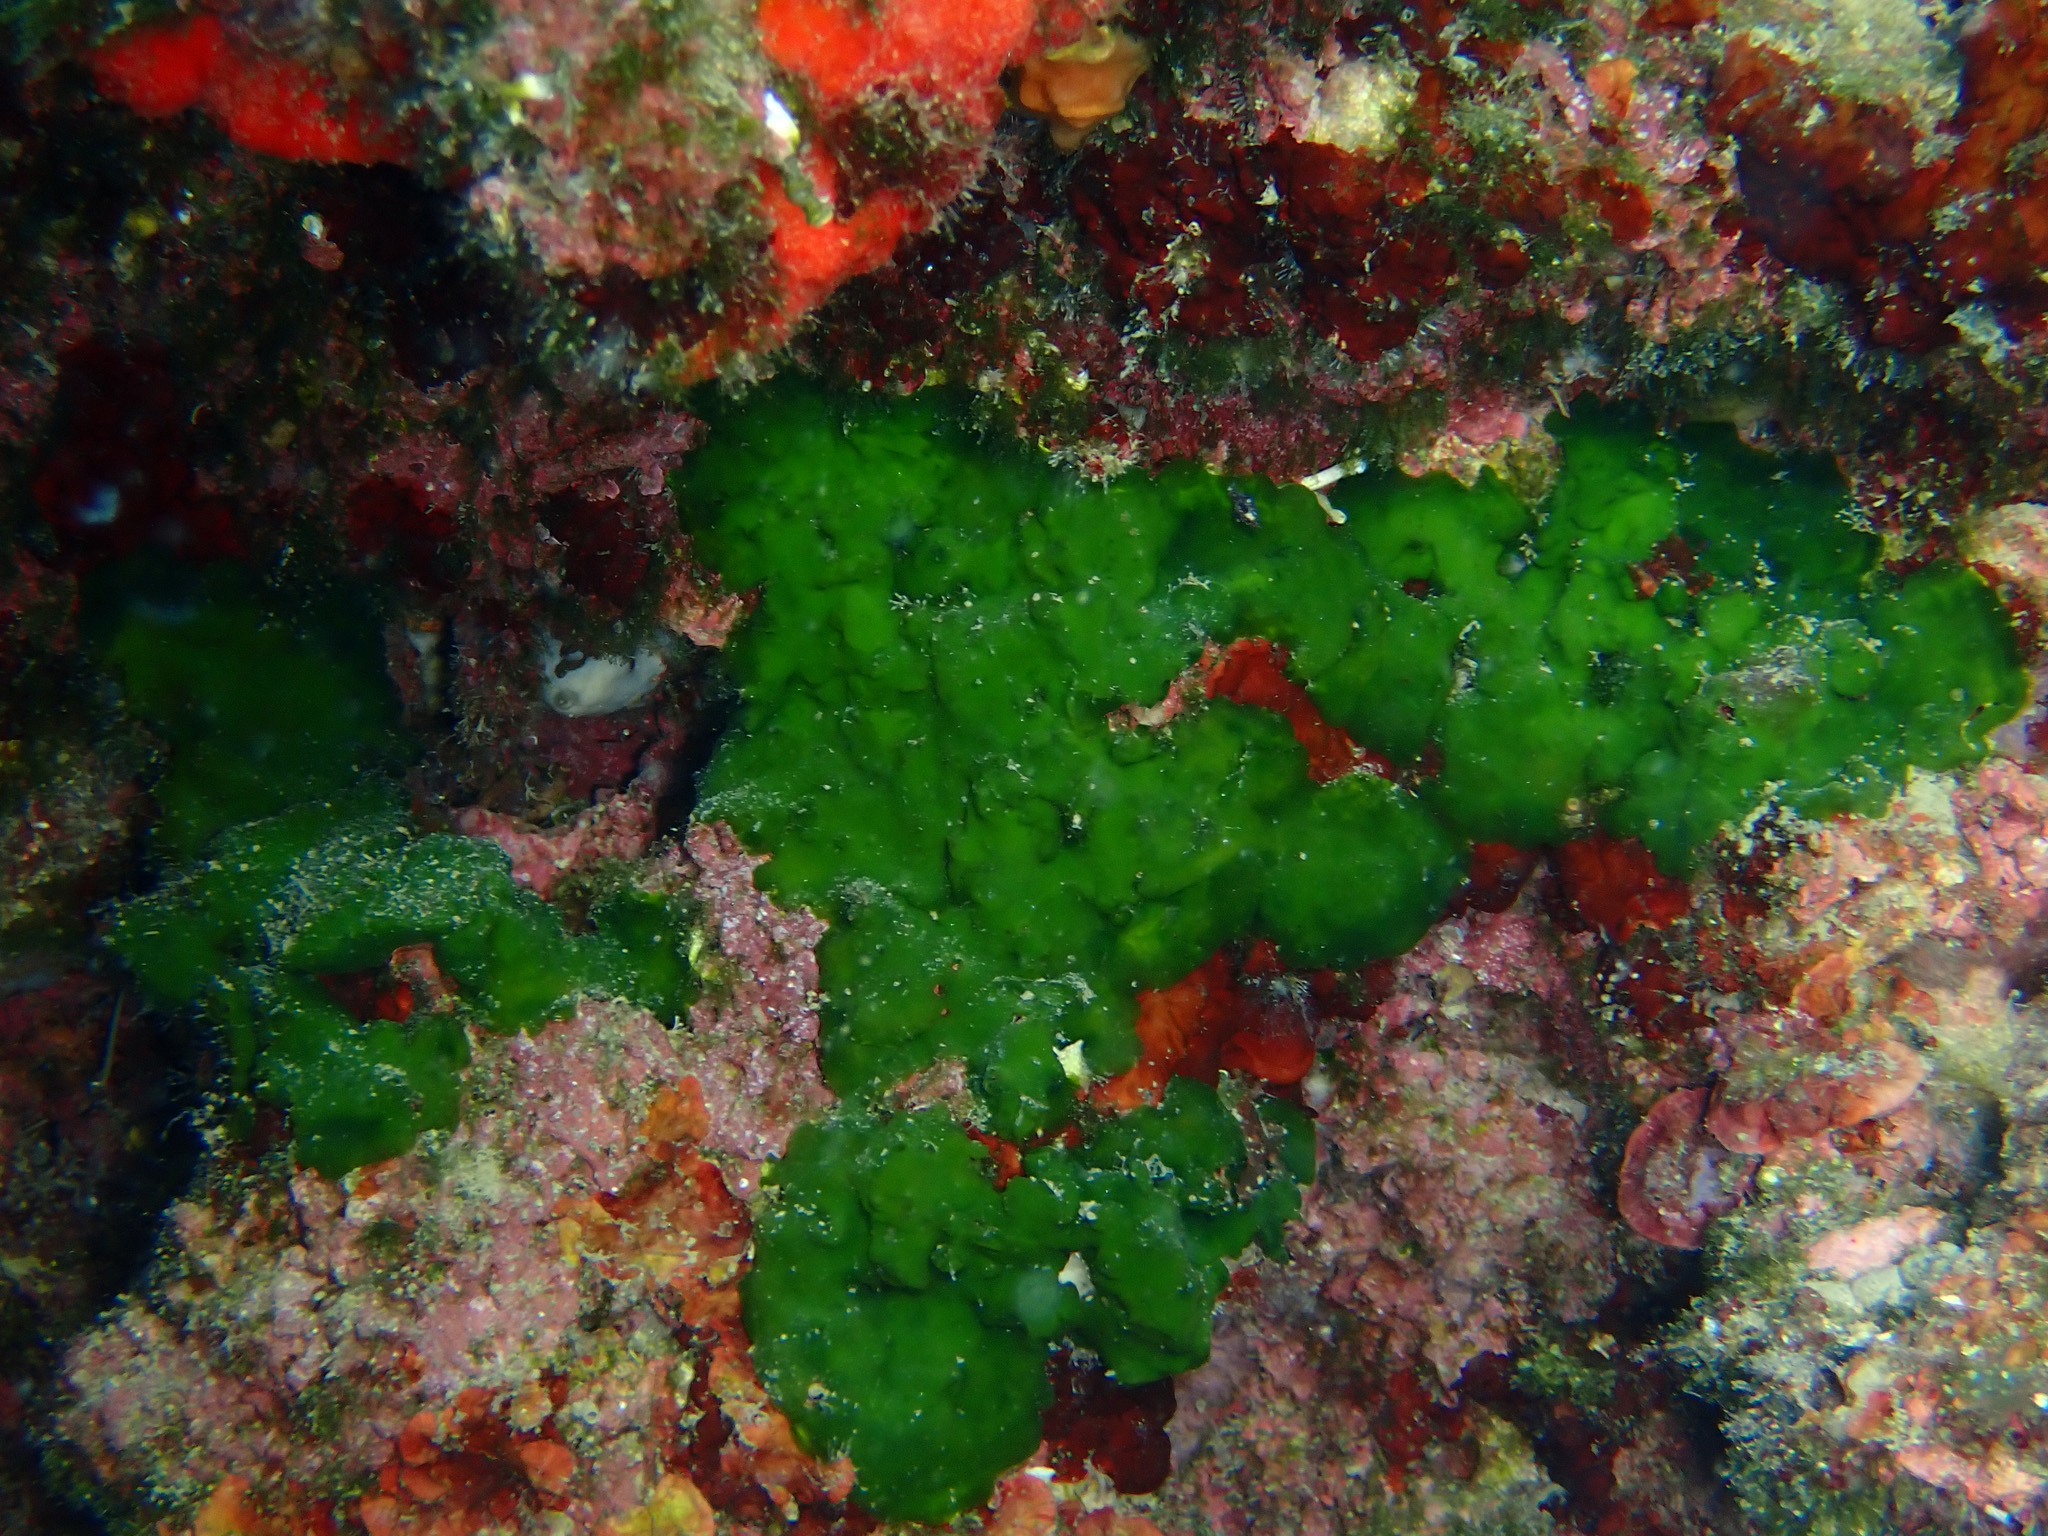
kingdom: Plantae
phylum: Chlorophyta
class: Palmophyllophyceae
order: Palmophyllales
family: Palmophyllaceae
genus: Palmophyllum
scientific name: Palmophyllum crassum
